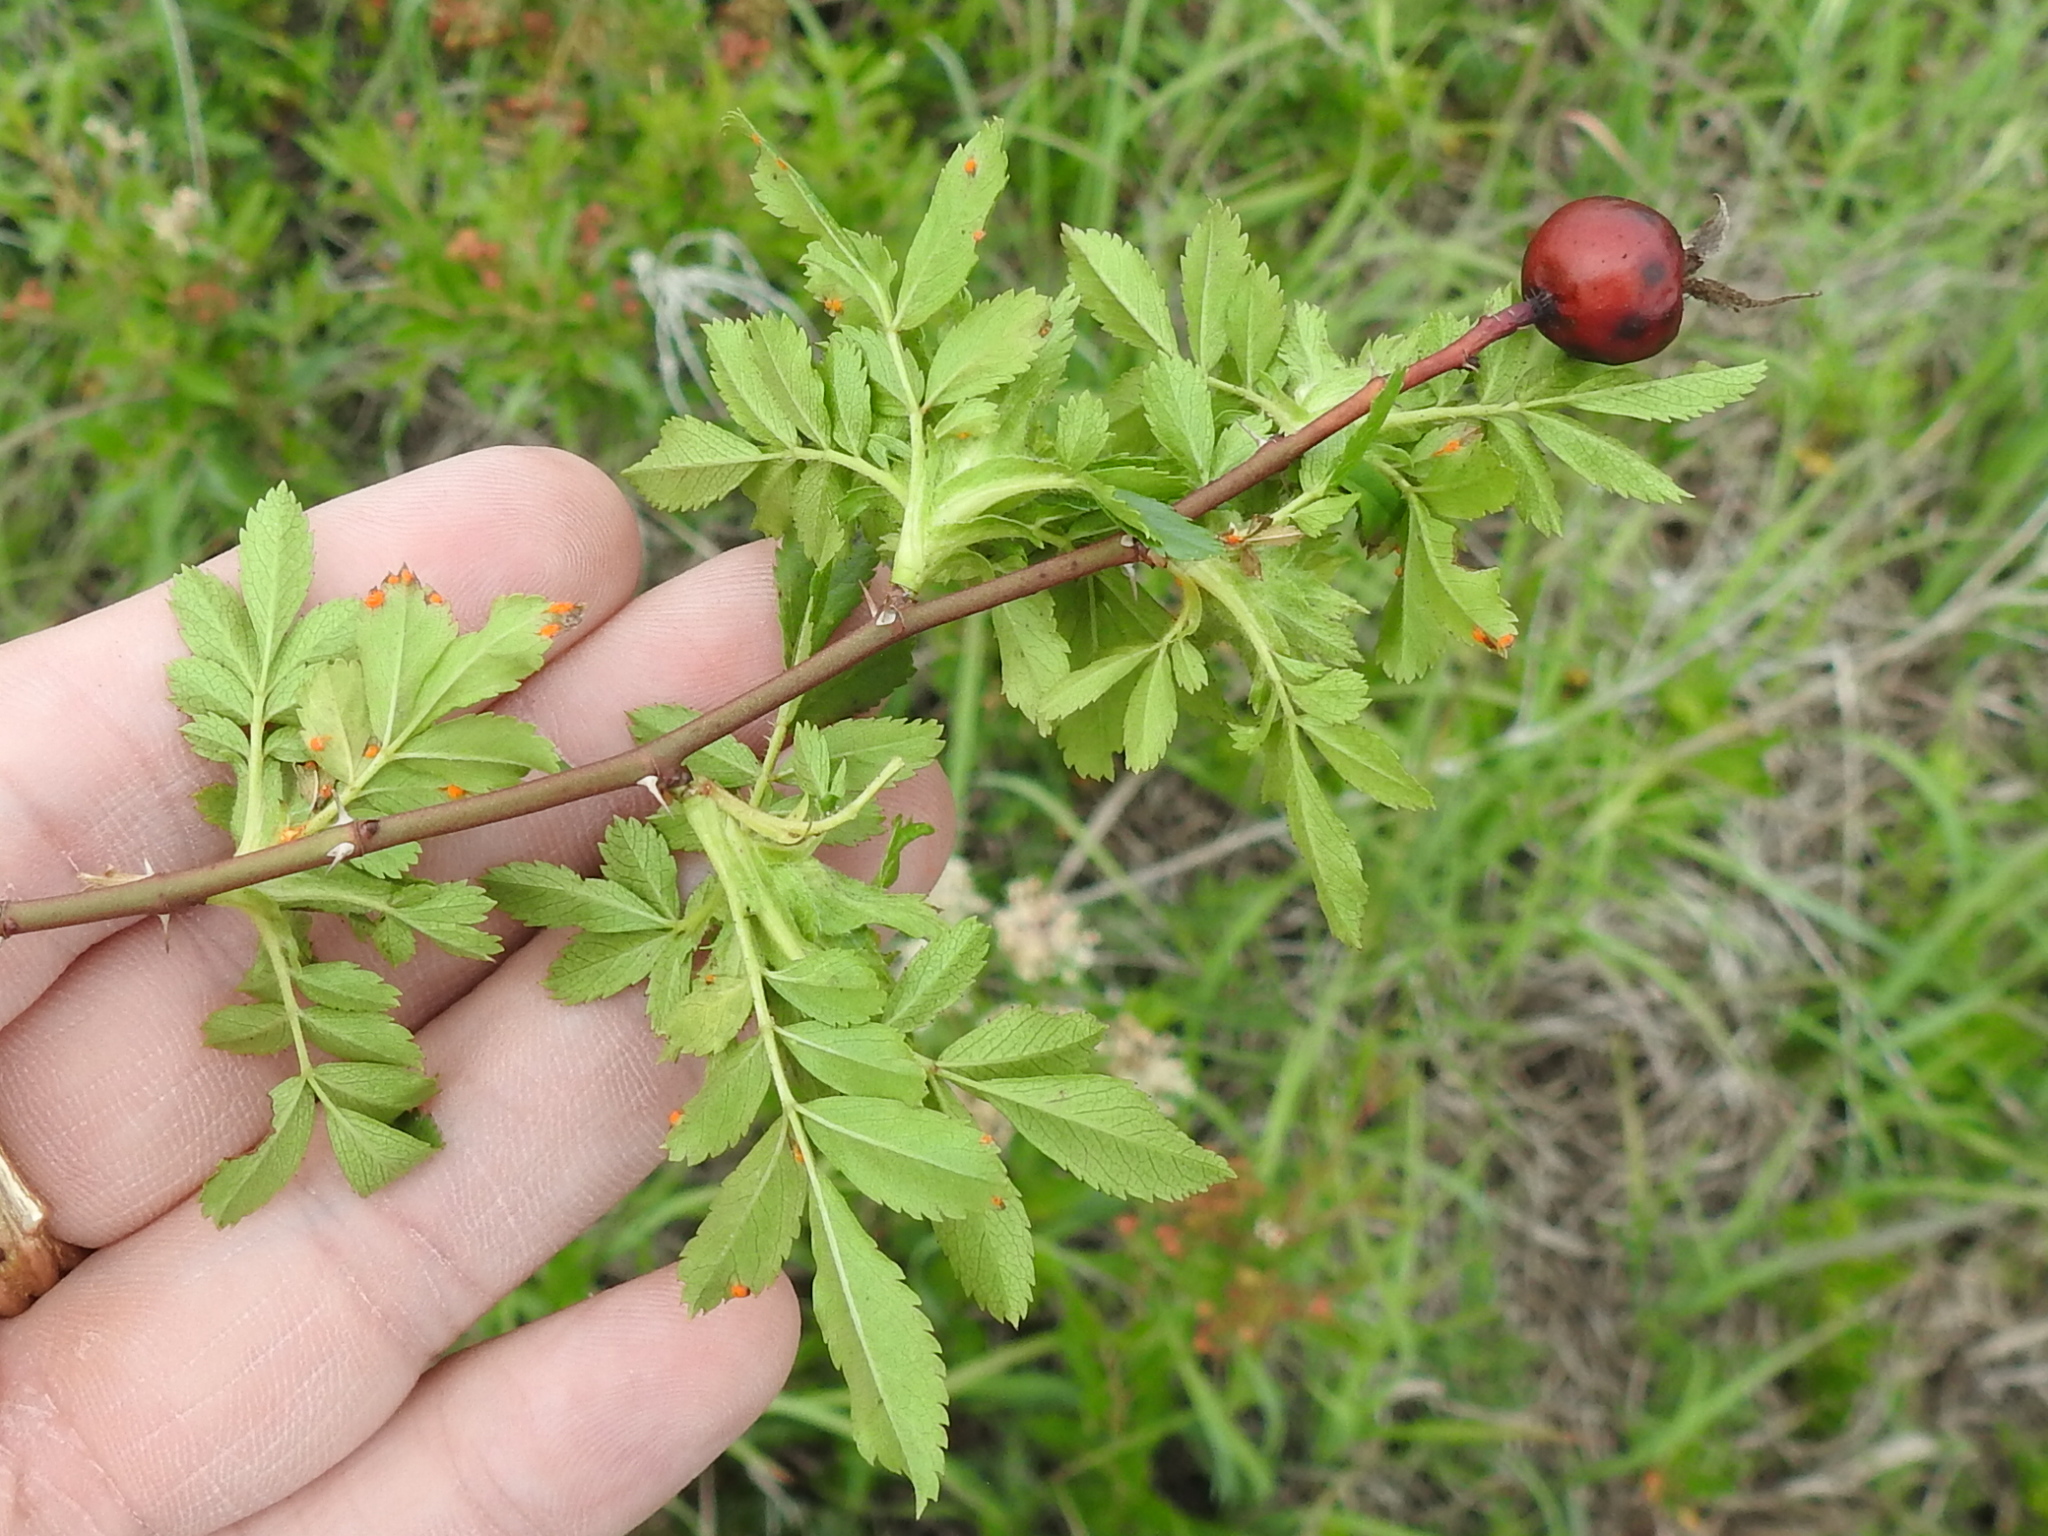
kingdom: Plantae
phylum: Tracheophyta
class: Magnoliopsida
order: Rosales
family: Rosaceae
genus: Rosa
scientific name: Rosa foliolosa
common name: White prairie rose
